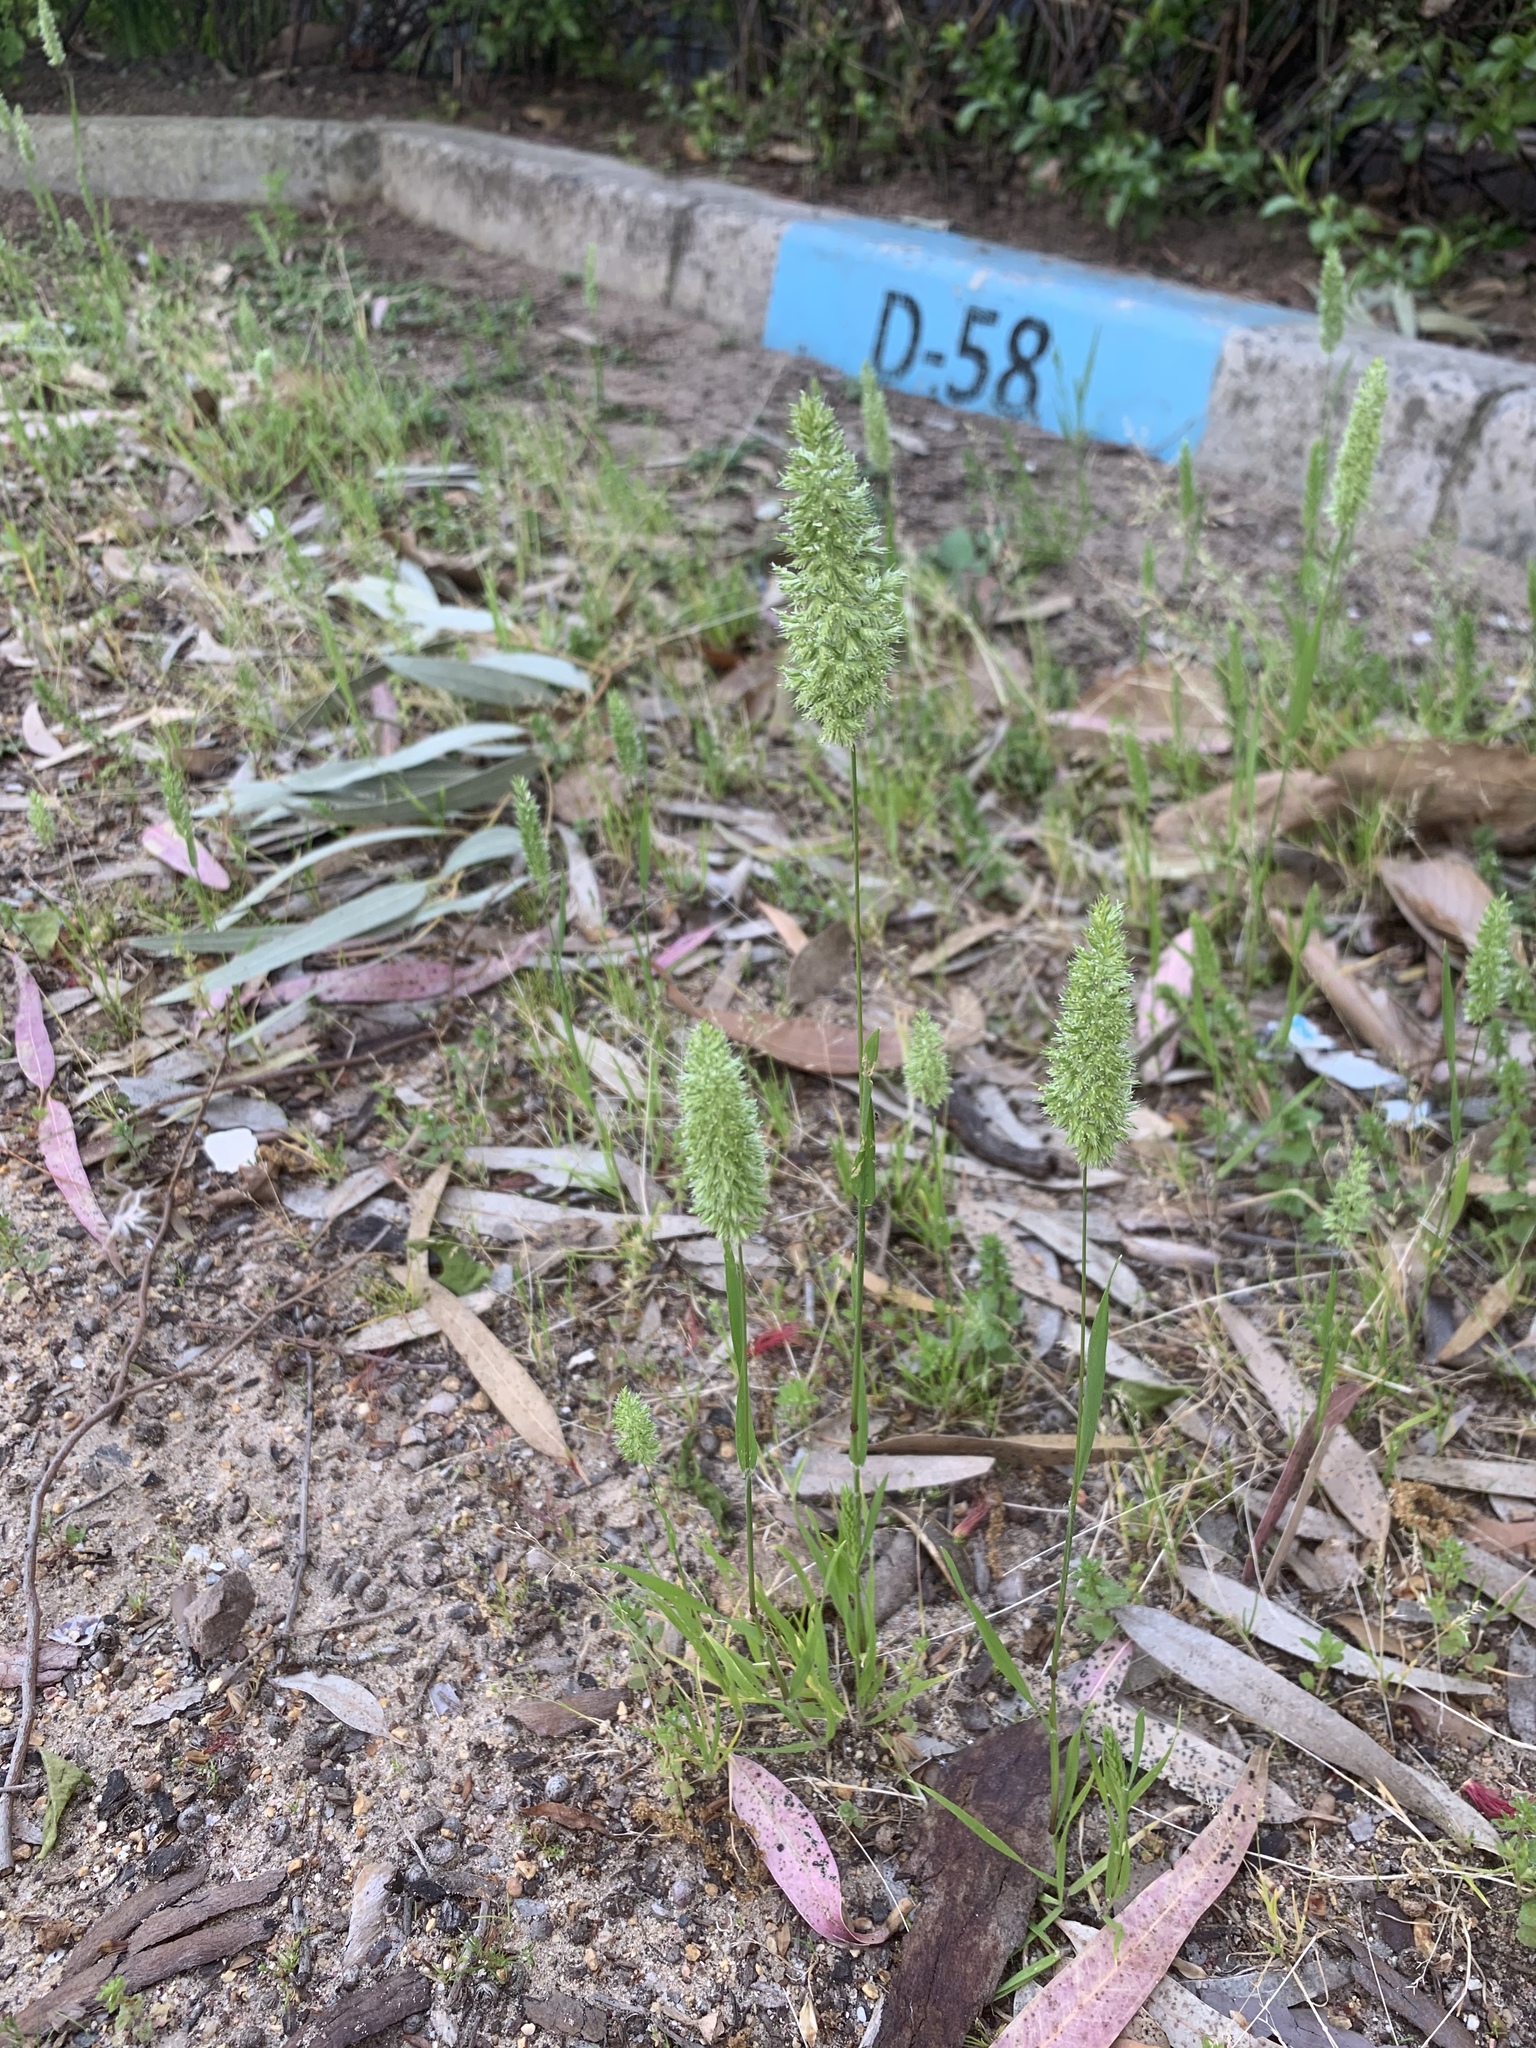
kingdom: Plantae
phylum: Tracheophyta
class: Liliopsida
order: Poales
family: Poaceae
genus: Rostraria
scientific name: Rostraria cristata
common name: Mediterranean hair-grass
